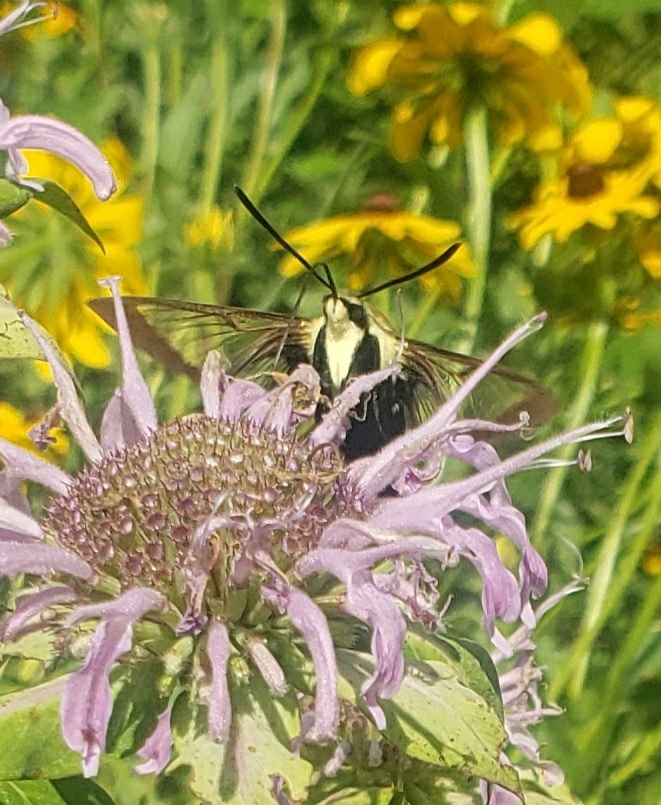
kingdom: Animalia
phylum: Arthropoda
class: Insecta
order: Lepidoptera
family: Sphingidae
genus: Hemaris
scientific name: Hemaris diffinis
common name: Bumblebee moth
